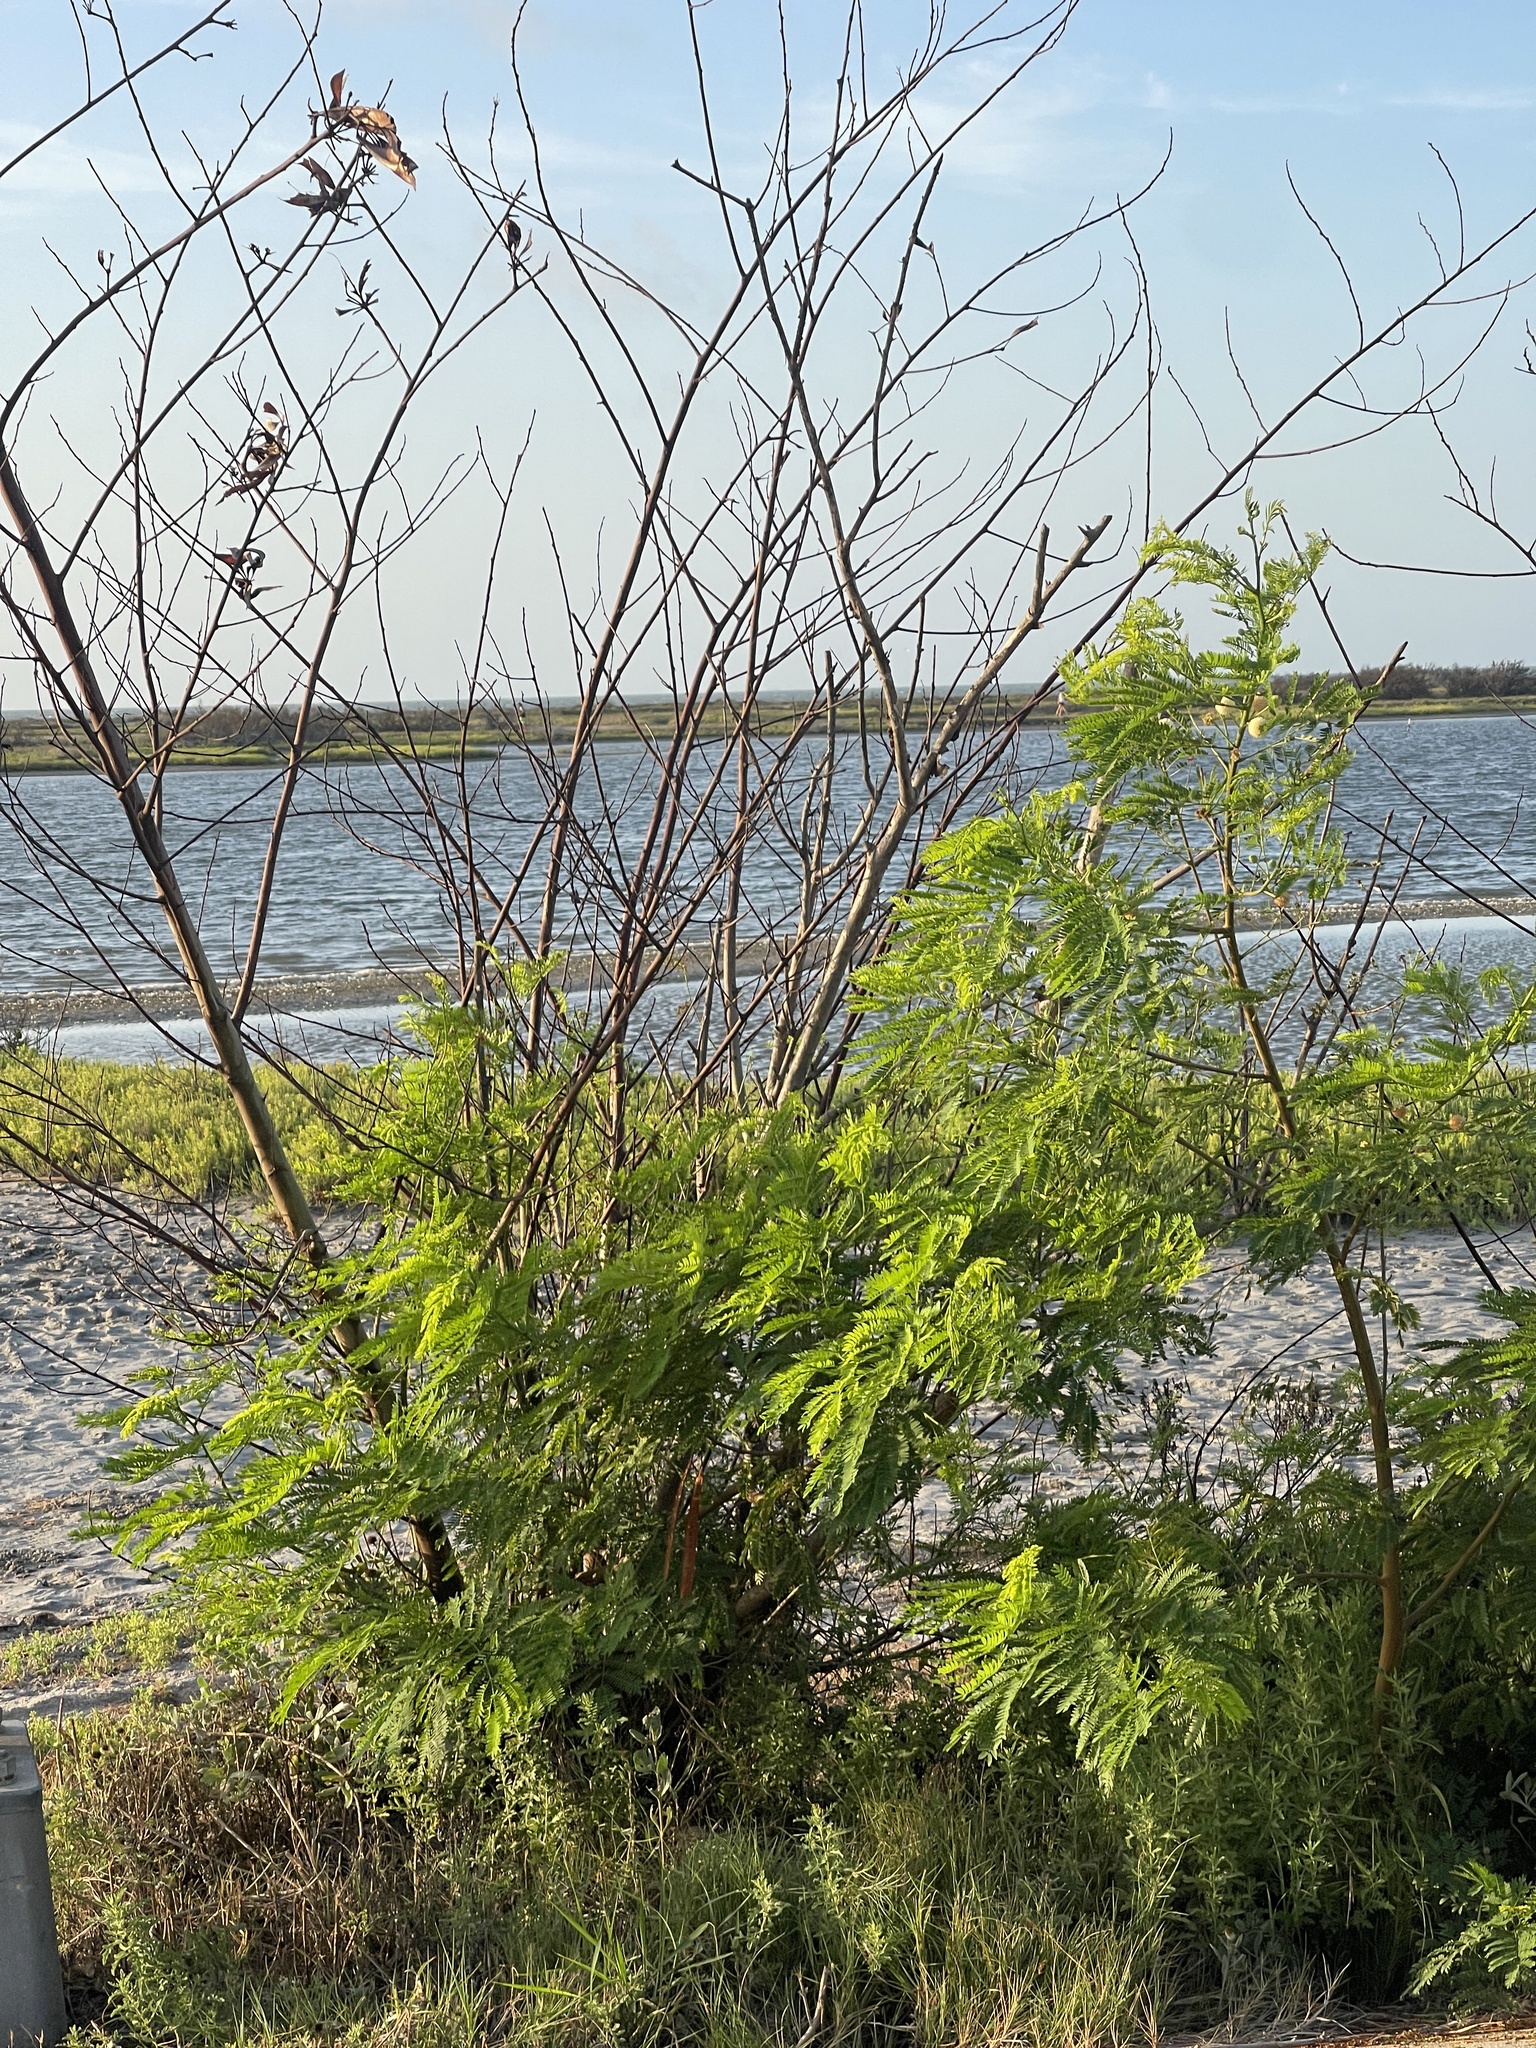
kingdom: Plantae
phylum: Tracheophyta
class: Magnoliopsida
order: Fabales
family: Fabaceae
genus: Leucaena
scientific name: Leucaena leucocephala
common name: White leadtree
